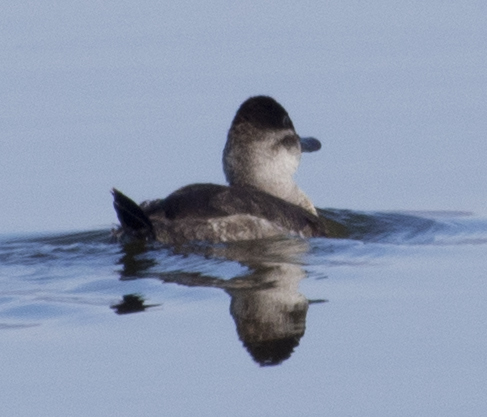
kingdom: Animalia
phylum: Chordata
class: Aves
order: Anseriformes
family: Anatidae
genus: Oxyura
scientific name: Oxyura jamaicensis
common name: Ruddy duck
